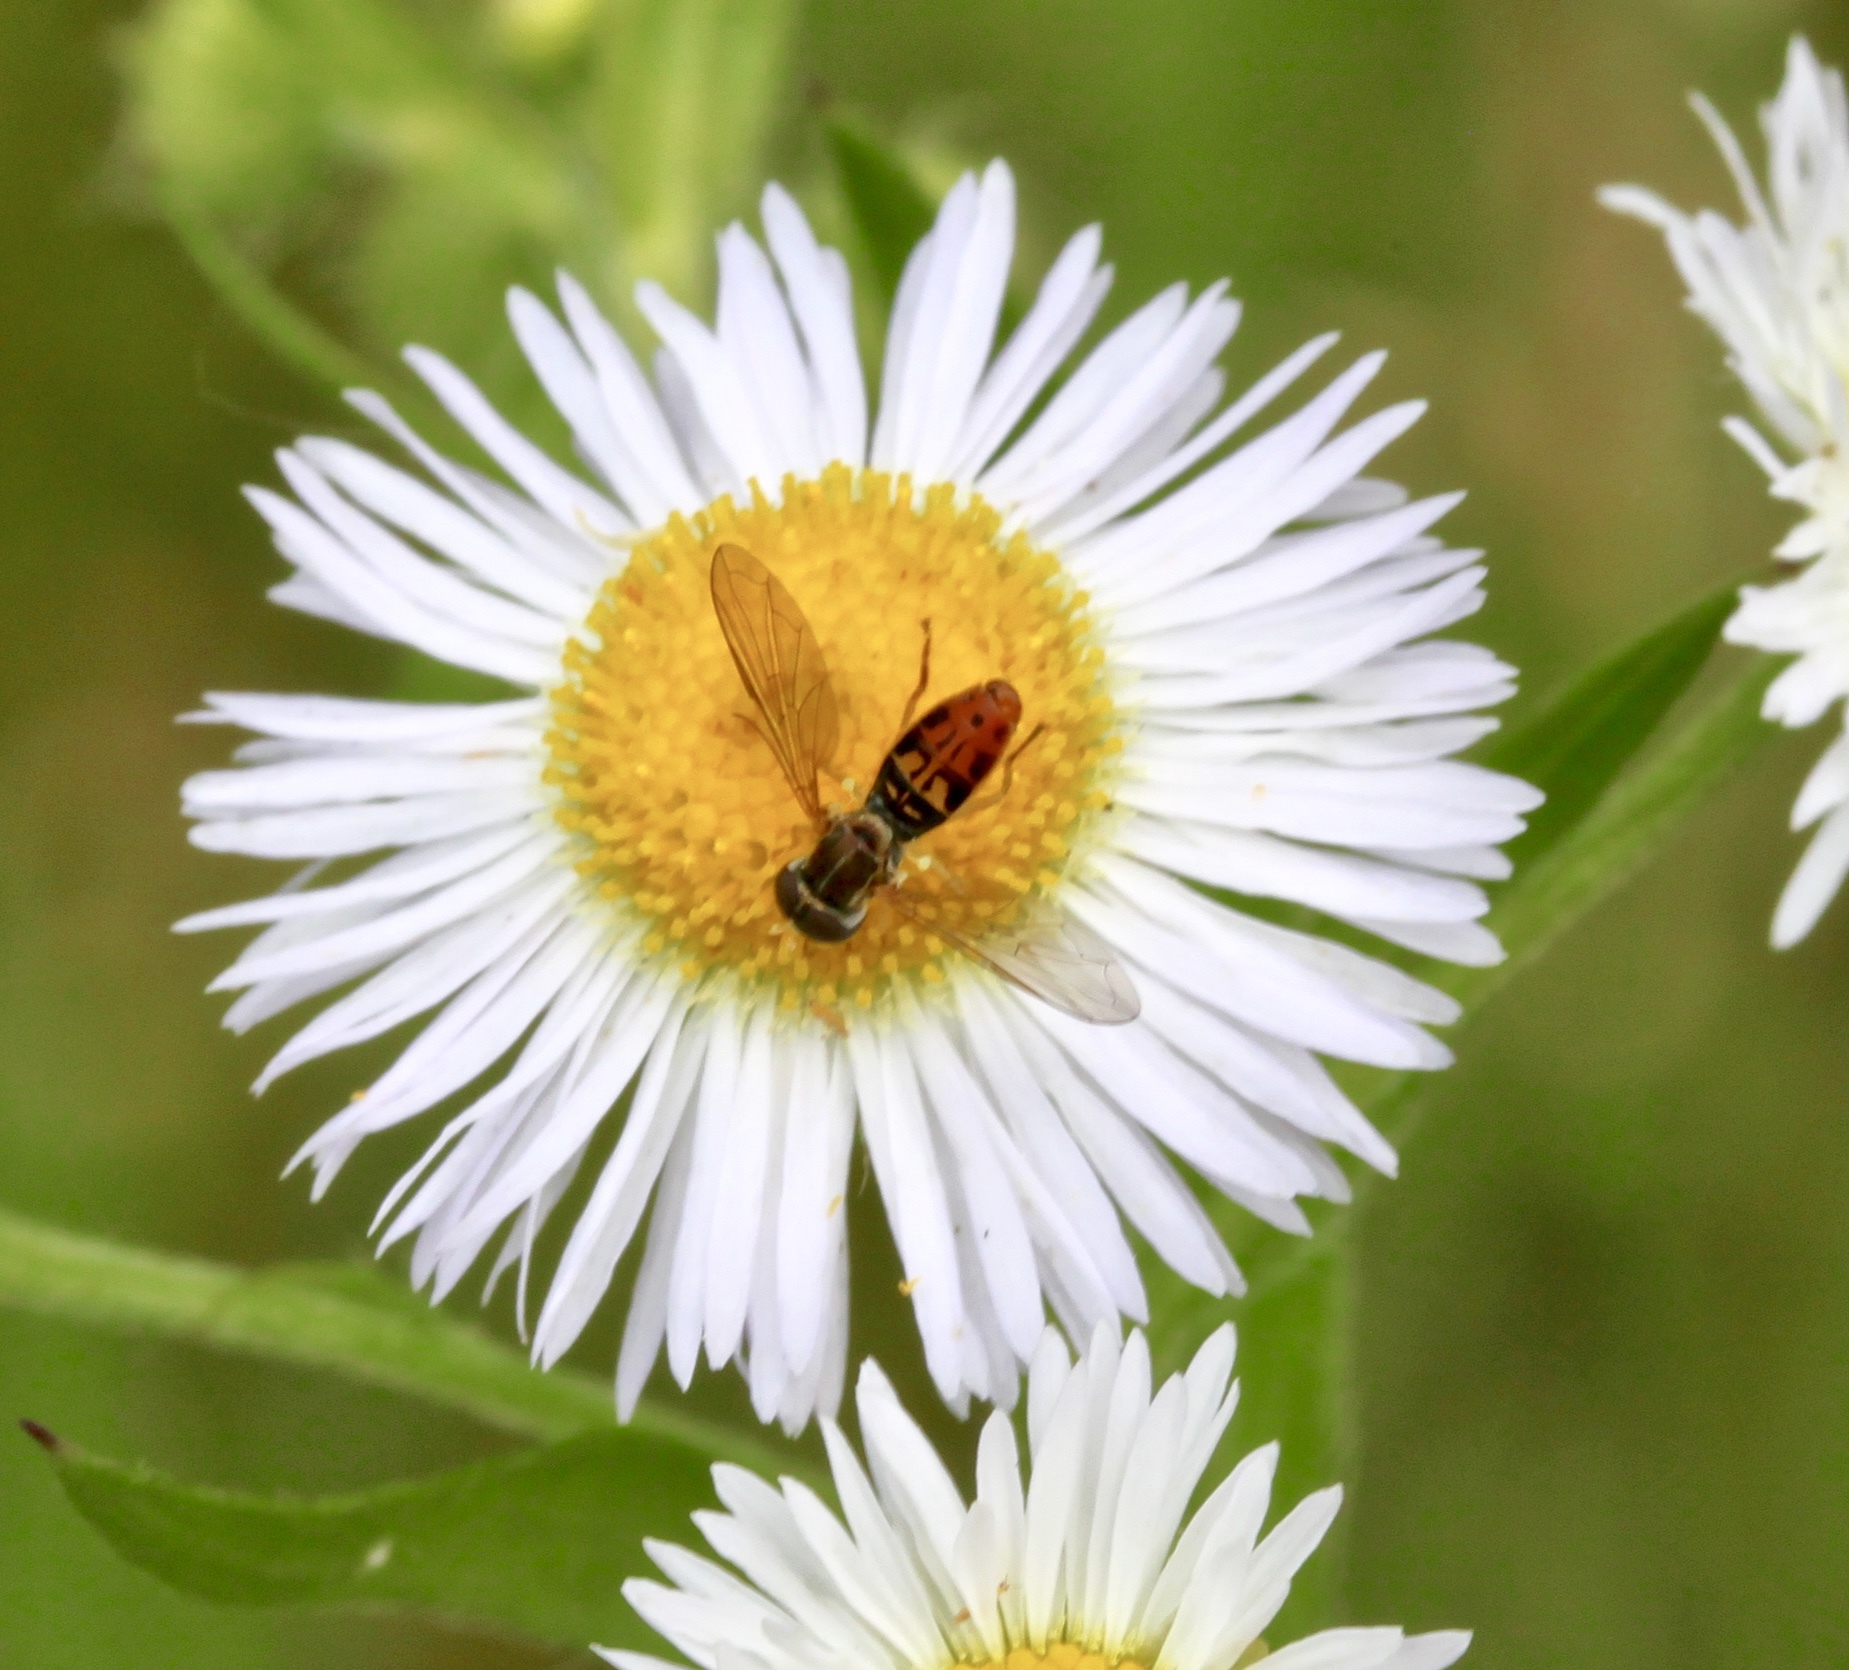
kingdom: Animalia
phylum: Arthropoda
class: Insecta
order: Diptera
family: Syrphidae
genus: Toxomerus
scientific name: Toxomerus marginatus
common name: Syrphid fly
